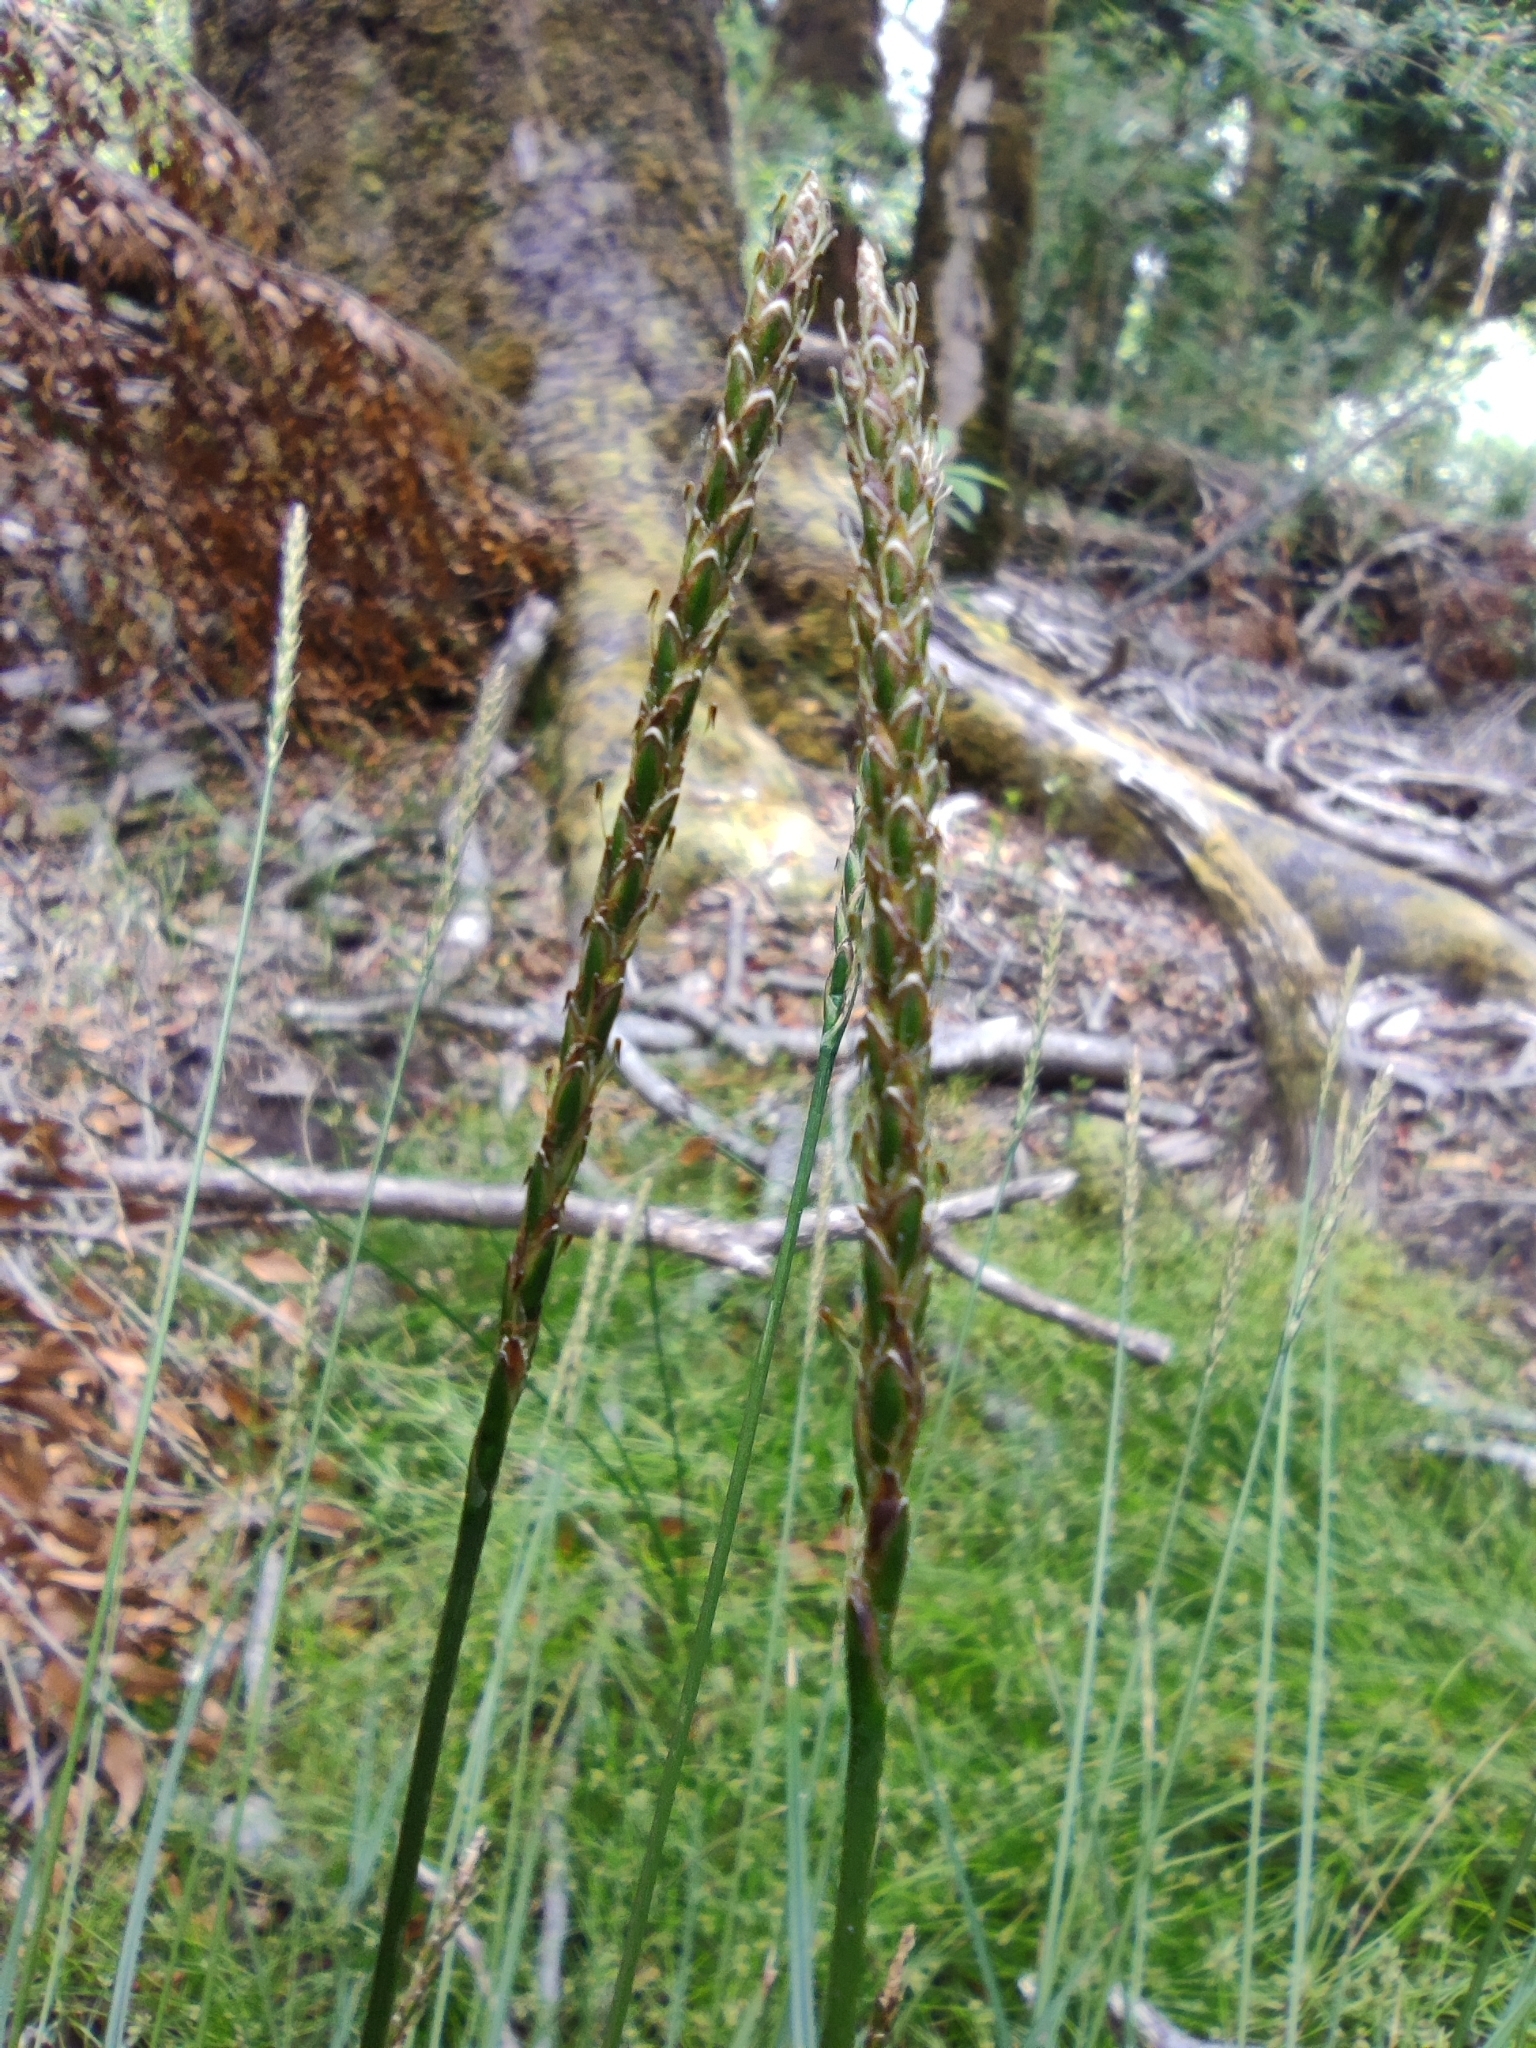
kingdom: Plantae
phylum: Tracheophyta
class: Liliopsida
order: Poales
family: Cyperaceae
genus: Carex
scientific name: Carex delacosta
